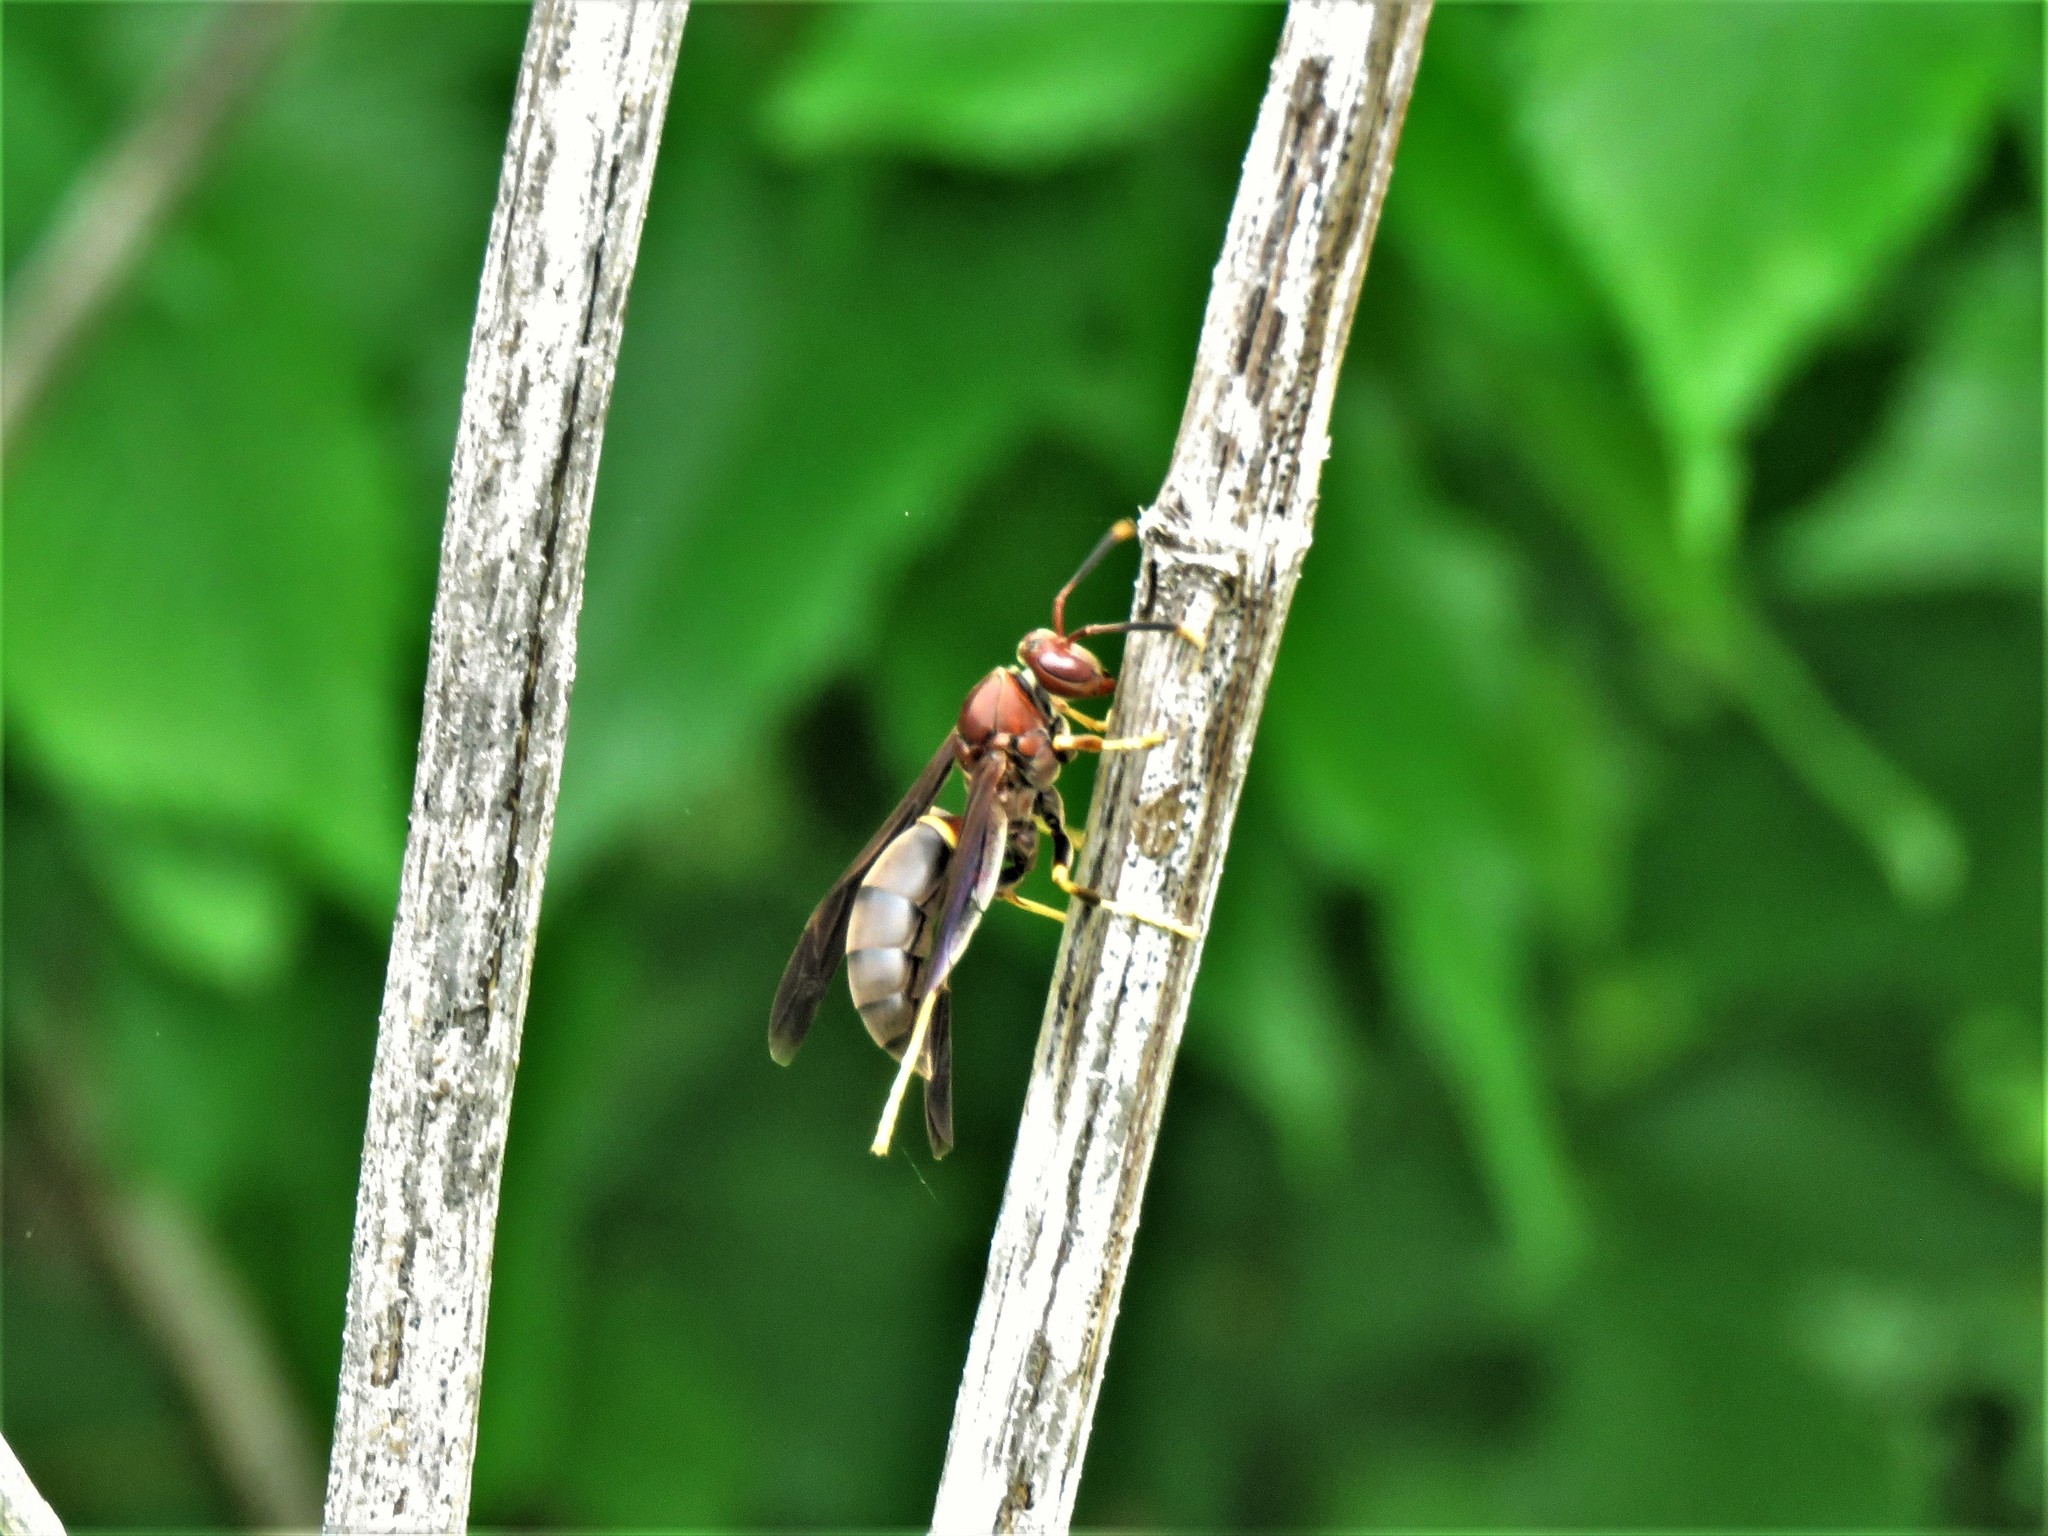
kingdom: Animalia
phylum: Arthropoda
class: Insecta
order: Hymenoptera
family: Eumenidae
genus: Polistes
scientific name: Polistes annularis
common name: Ringed paper wasp
